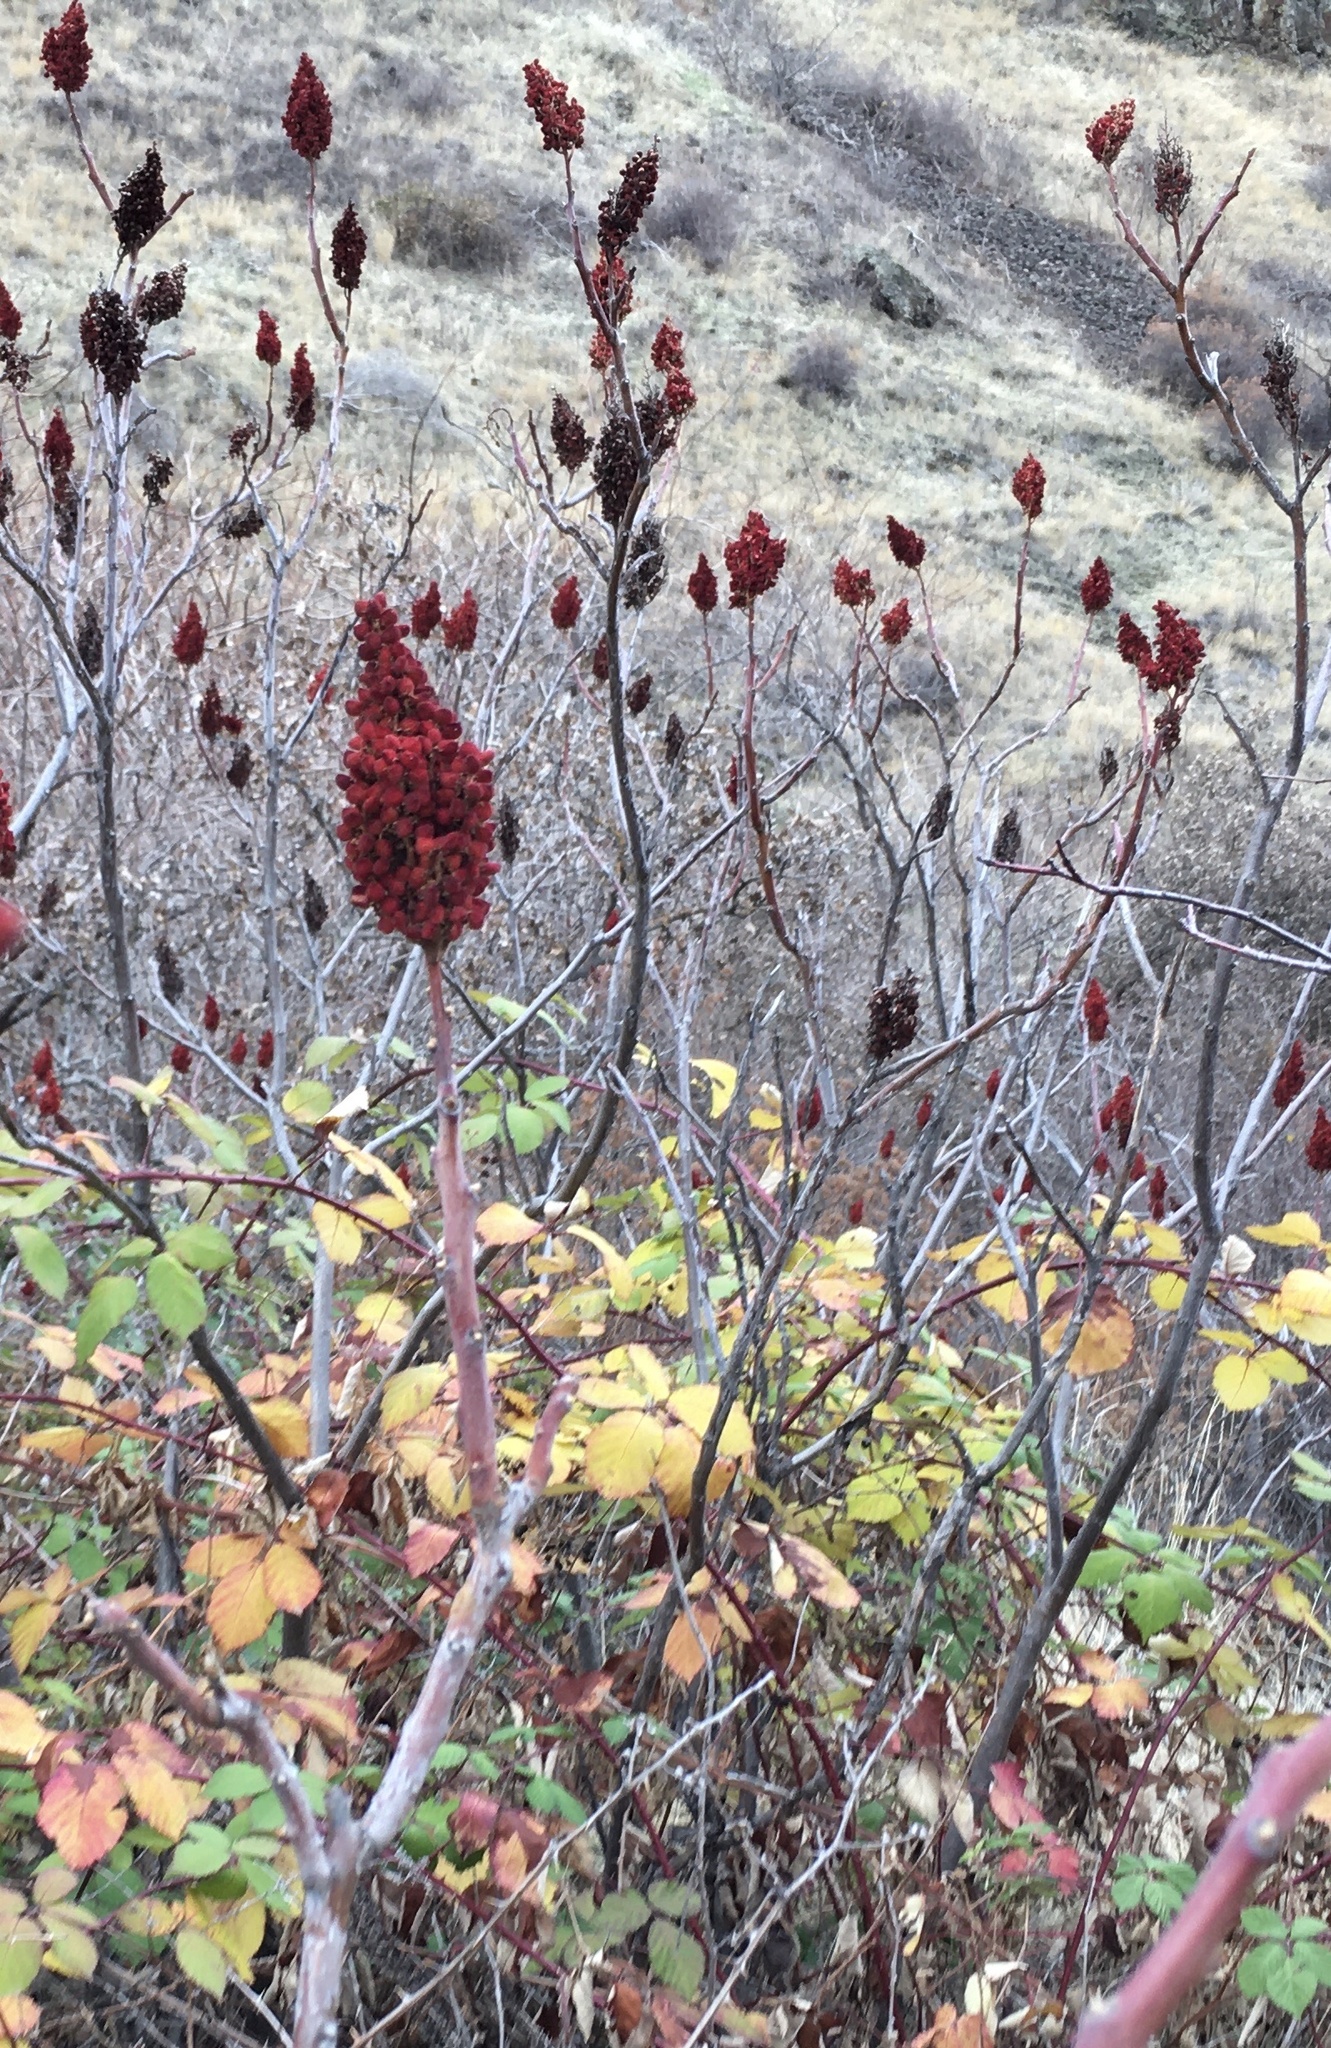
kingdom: Plantae
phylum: Tracheophyta
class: Magnoliopsida
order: Sapindales
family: Anacardiaceae
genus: Rhus
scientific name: Rhus glabra
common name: Scarlet sumac
